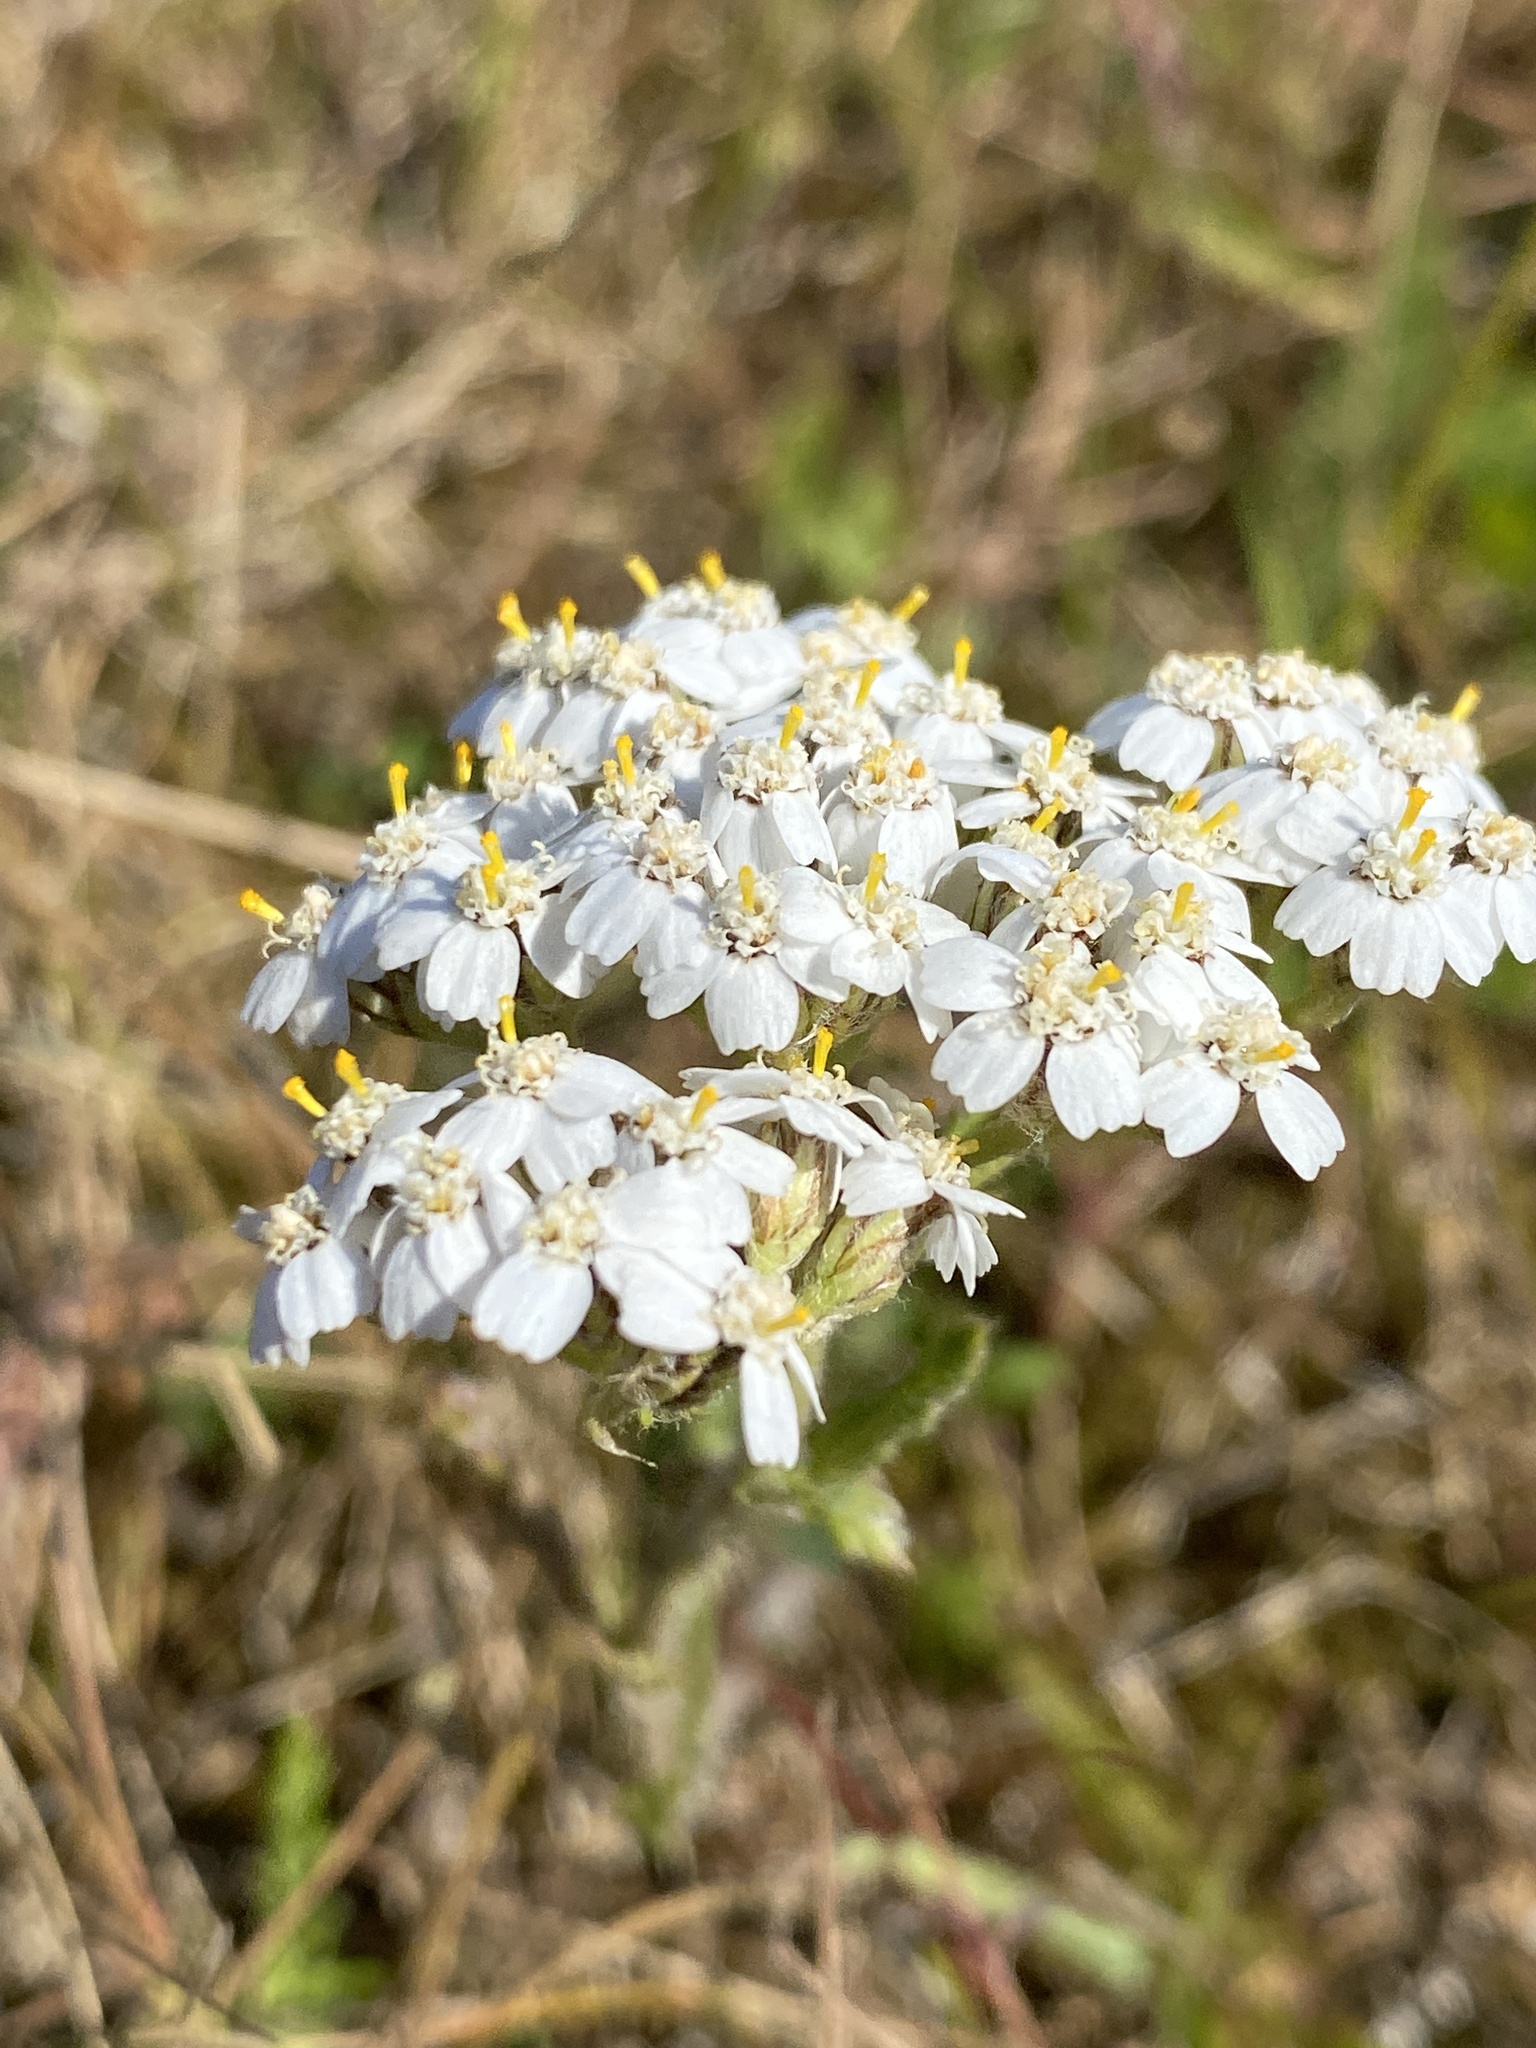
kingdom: Plantae
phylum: Tracheophyta
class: Magnoliopsida
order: Asterales
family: Asteraceae
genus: Achillea
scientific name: Achillea millefolium
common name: Yarrow
